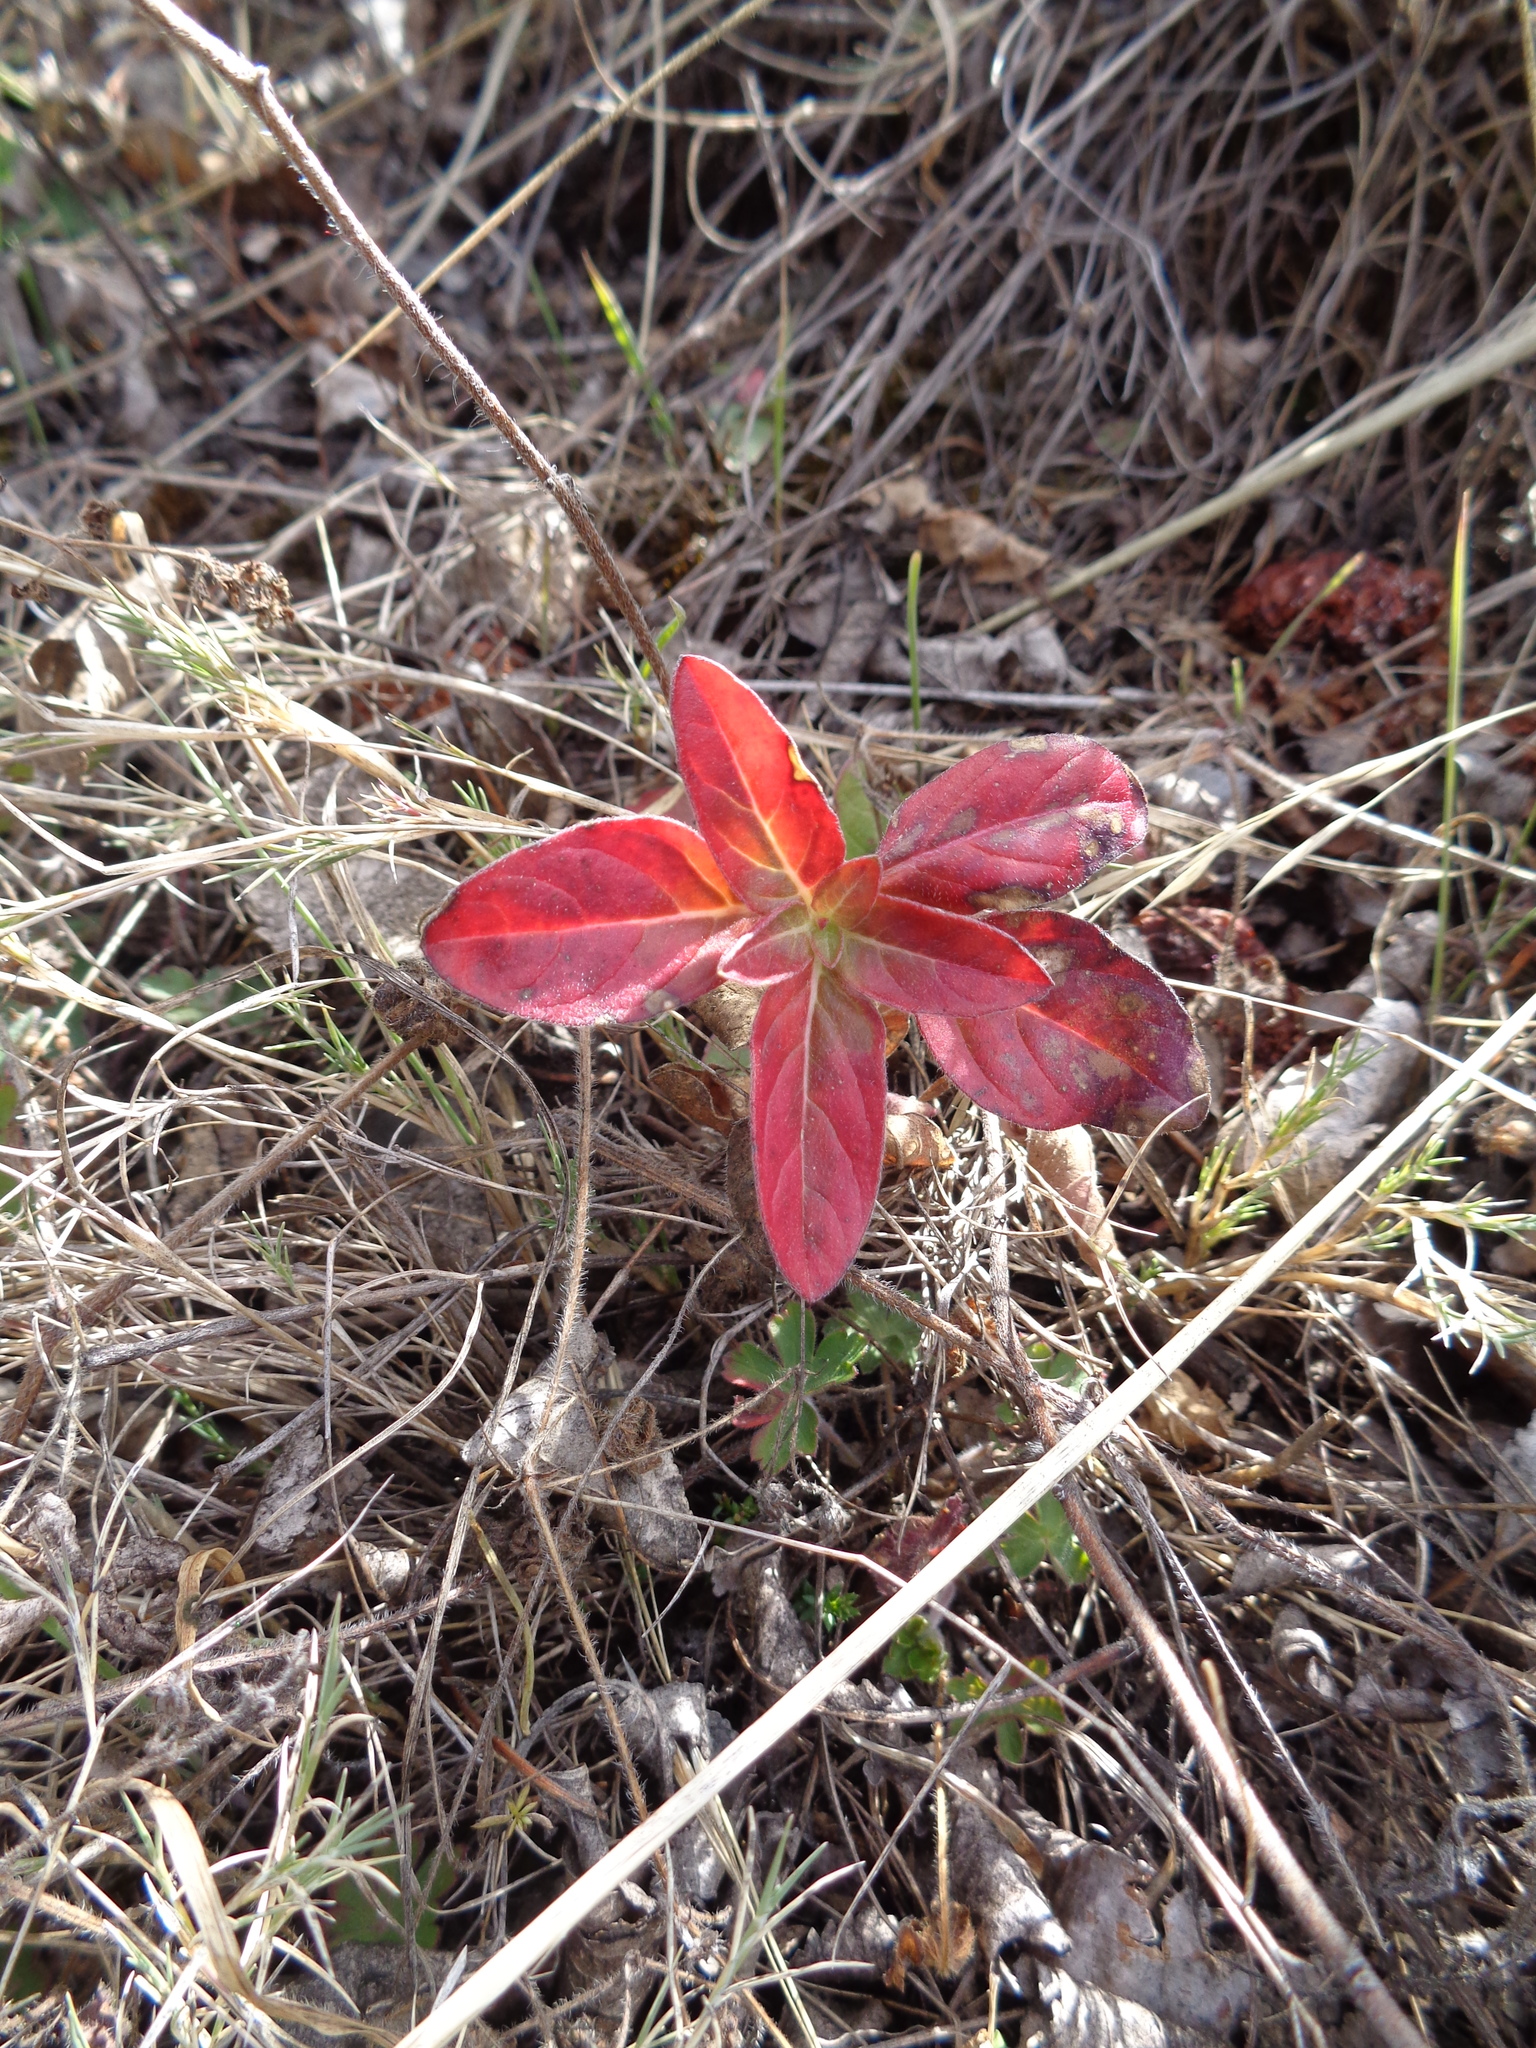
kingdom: Plantae
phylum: Tracheophyta
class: Magnoliopsida
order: Myrtales
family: Onagraceae
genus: Ludwigia
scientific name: Ludwigia peruviana
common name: Peruvian primrose-willow
